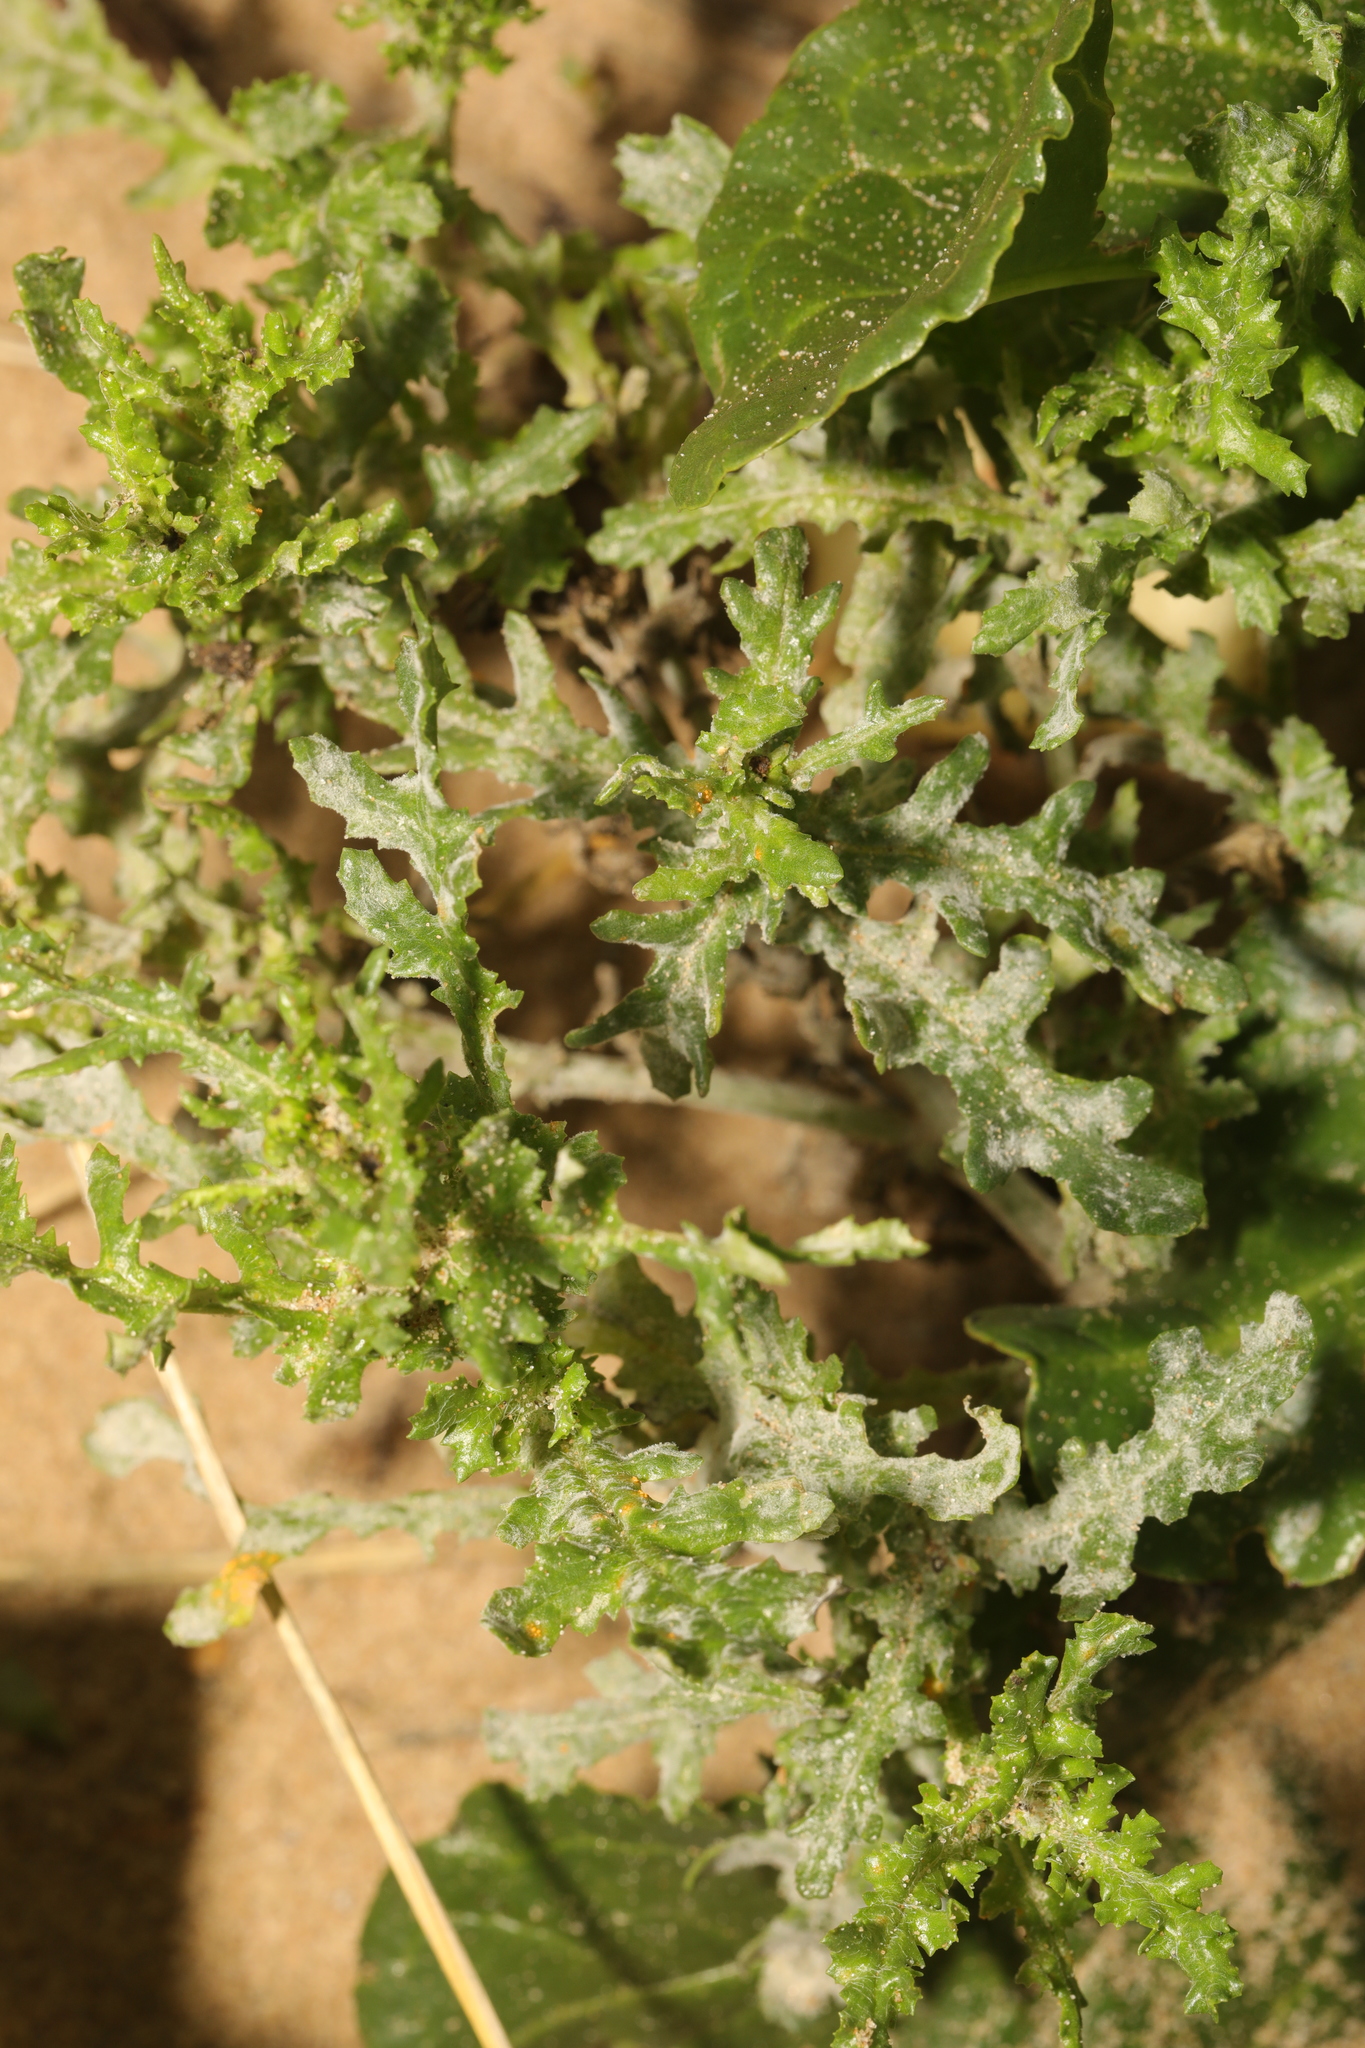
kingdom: Plantae
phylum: Tracheophyta
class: Magnoliopsida
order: Asterales
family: Asteraceae
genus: Senecio
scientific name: Senecio vulgaris
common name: Old-man-in-the-spring
